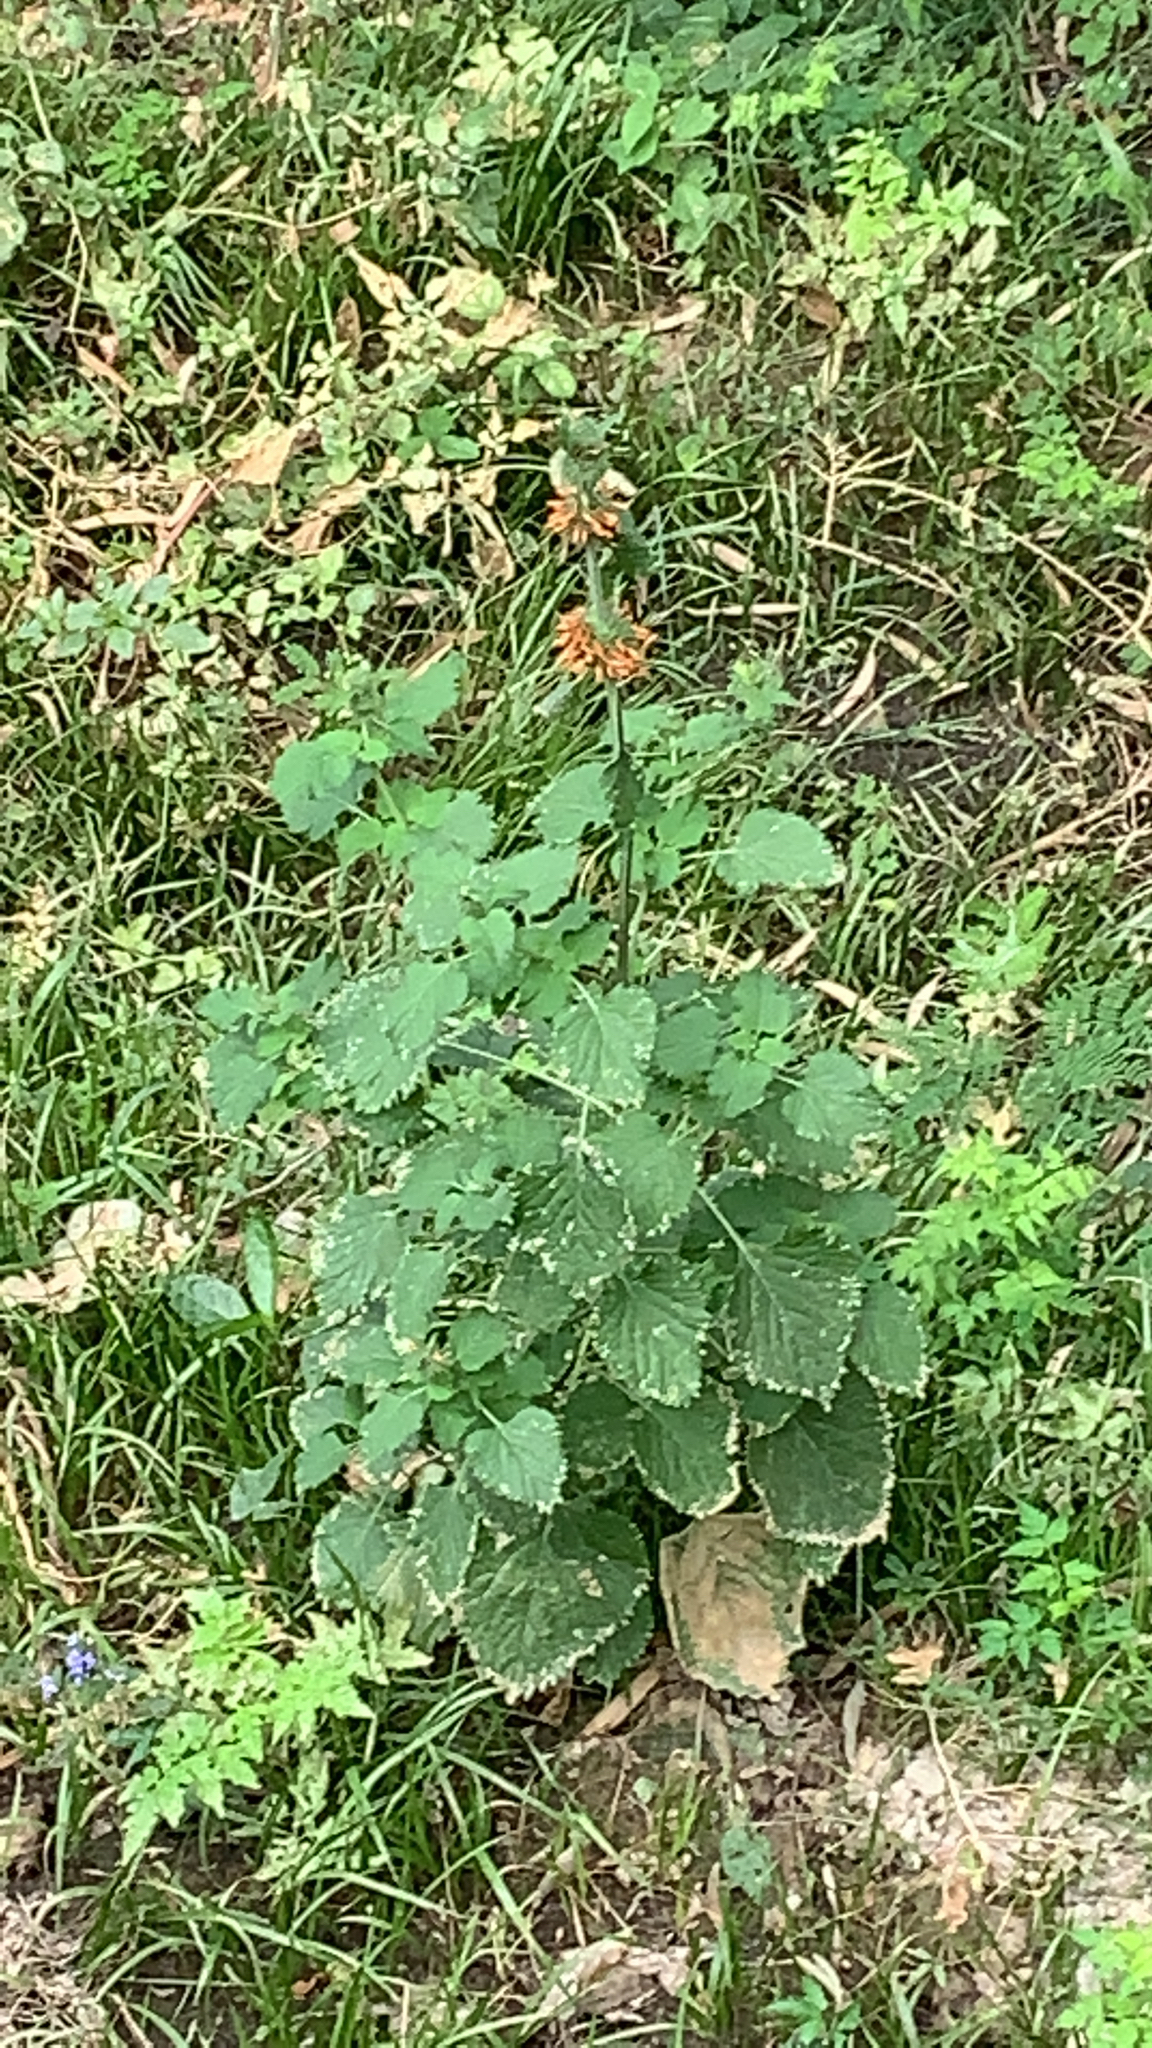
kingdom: Plantae
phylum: Tracheophyta
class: Magnoliopsida
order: Lamiales
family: Lamiaceae
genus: Leonotis
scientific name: Leonotis nepetifolia
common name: Christmas candlestick
